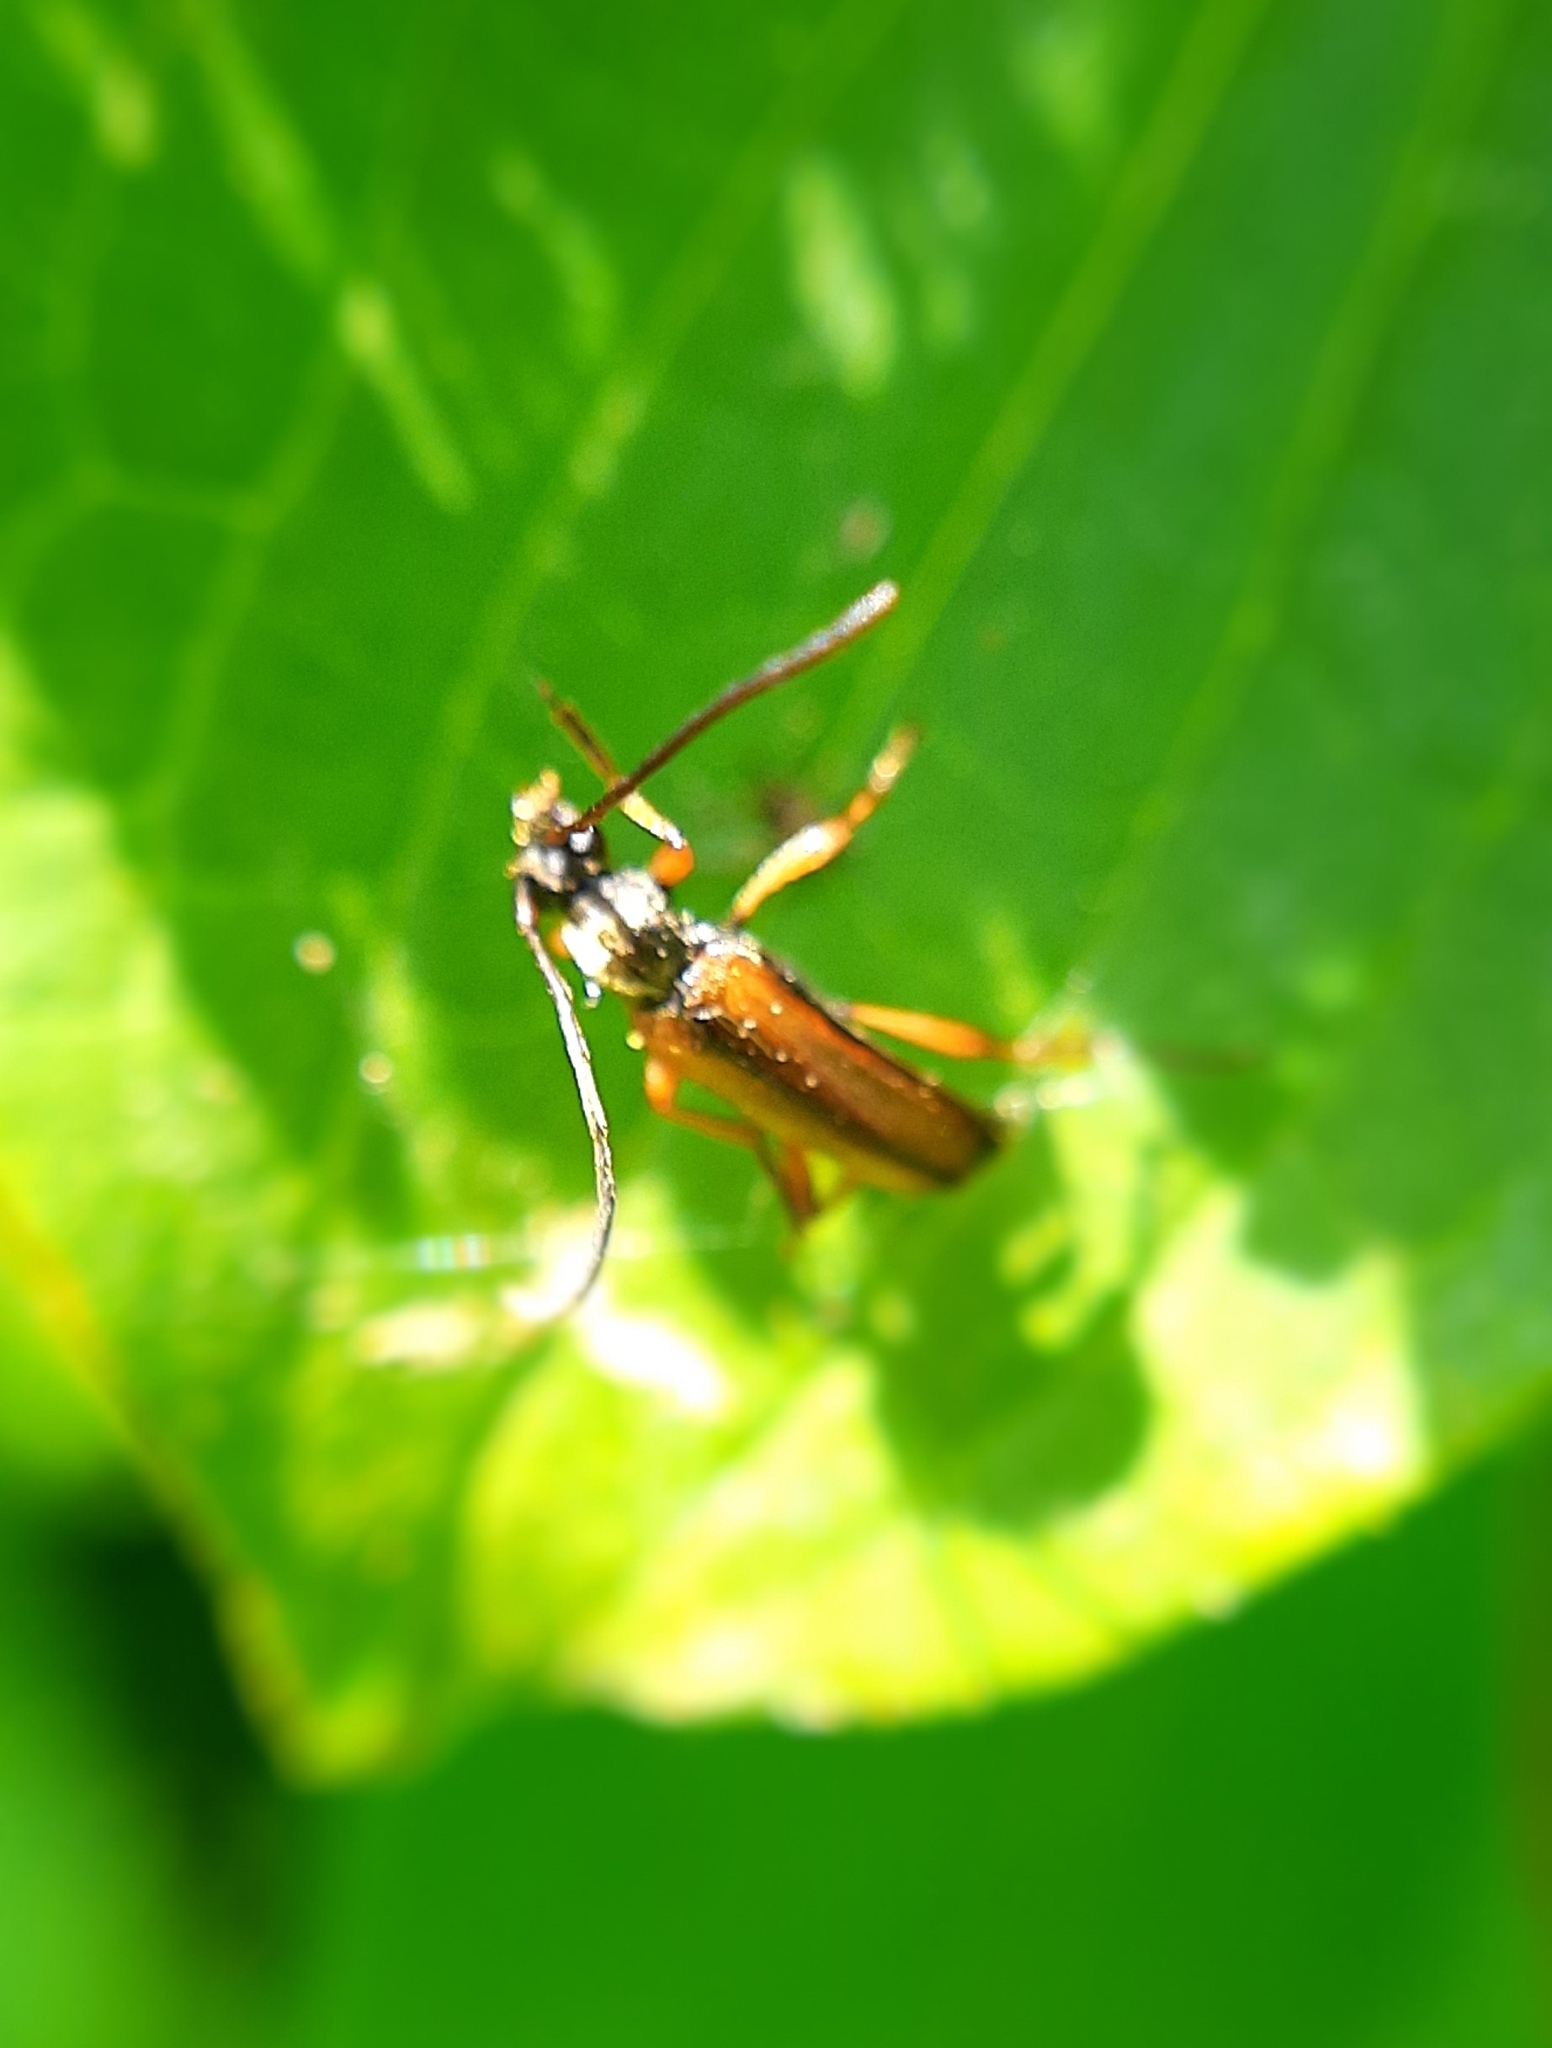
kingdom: Animalia
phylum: Arthropoda
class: Insecta
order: Coleoptera
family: Cerambycidae
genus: Alosterna
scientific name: Alosterna tabacicolor
